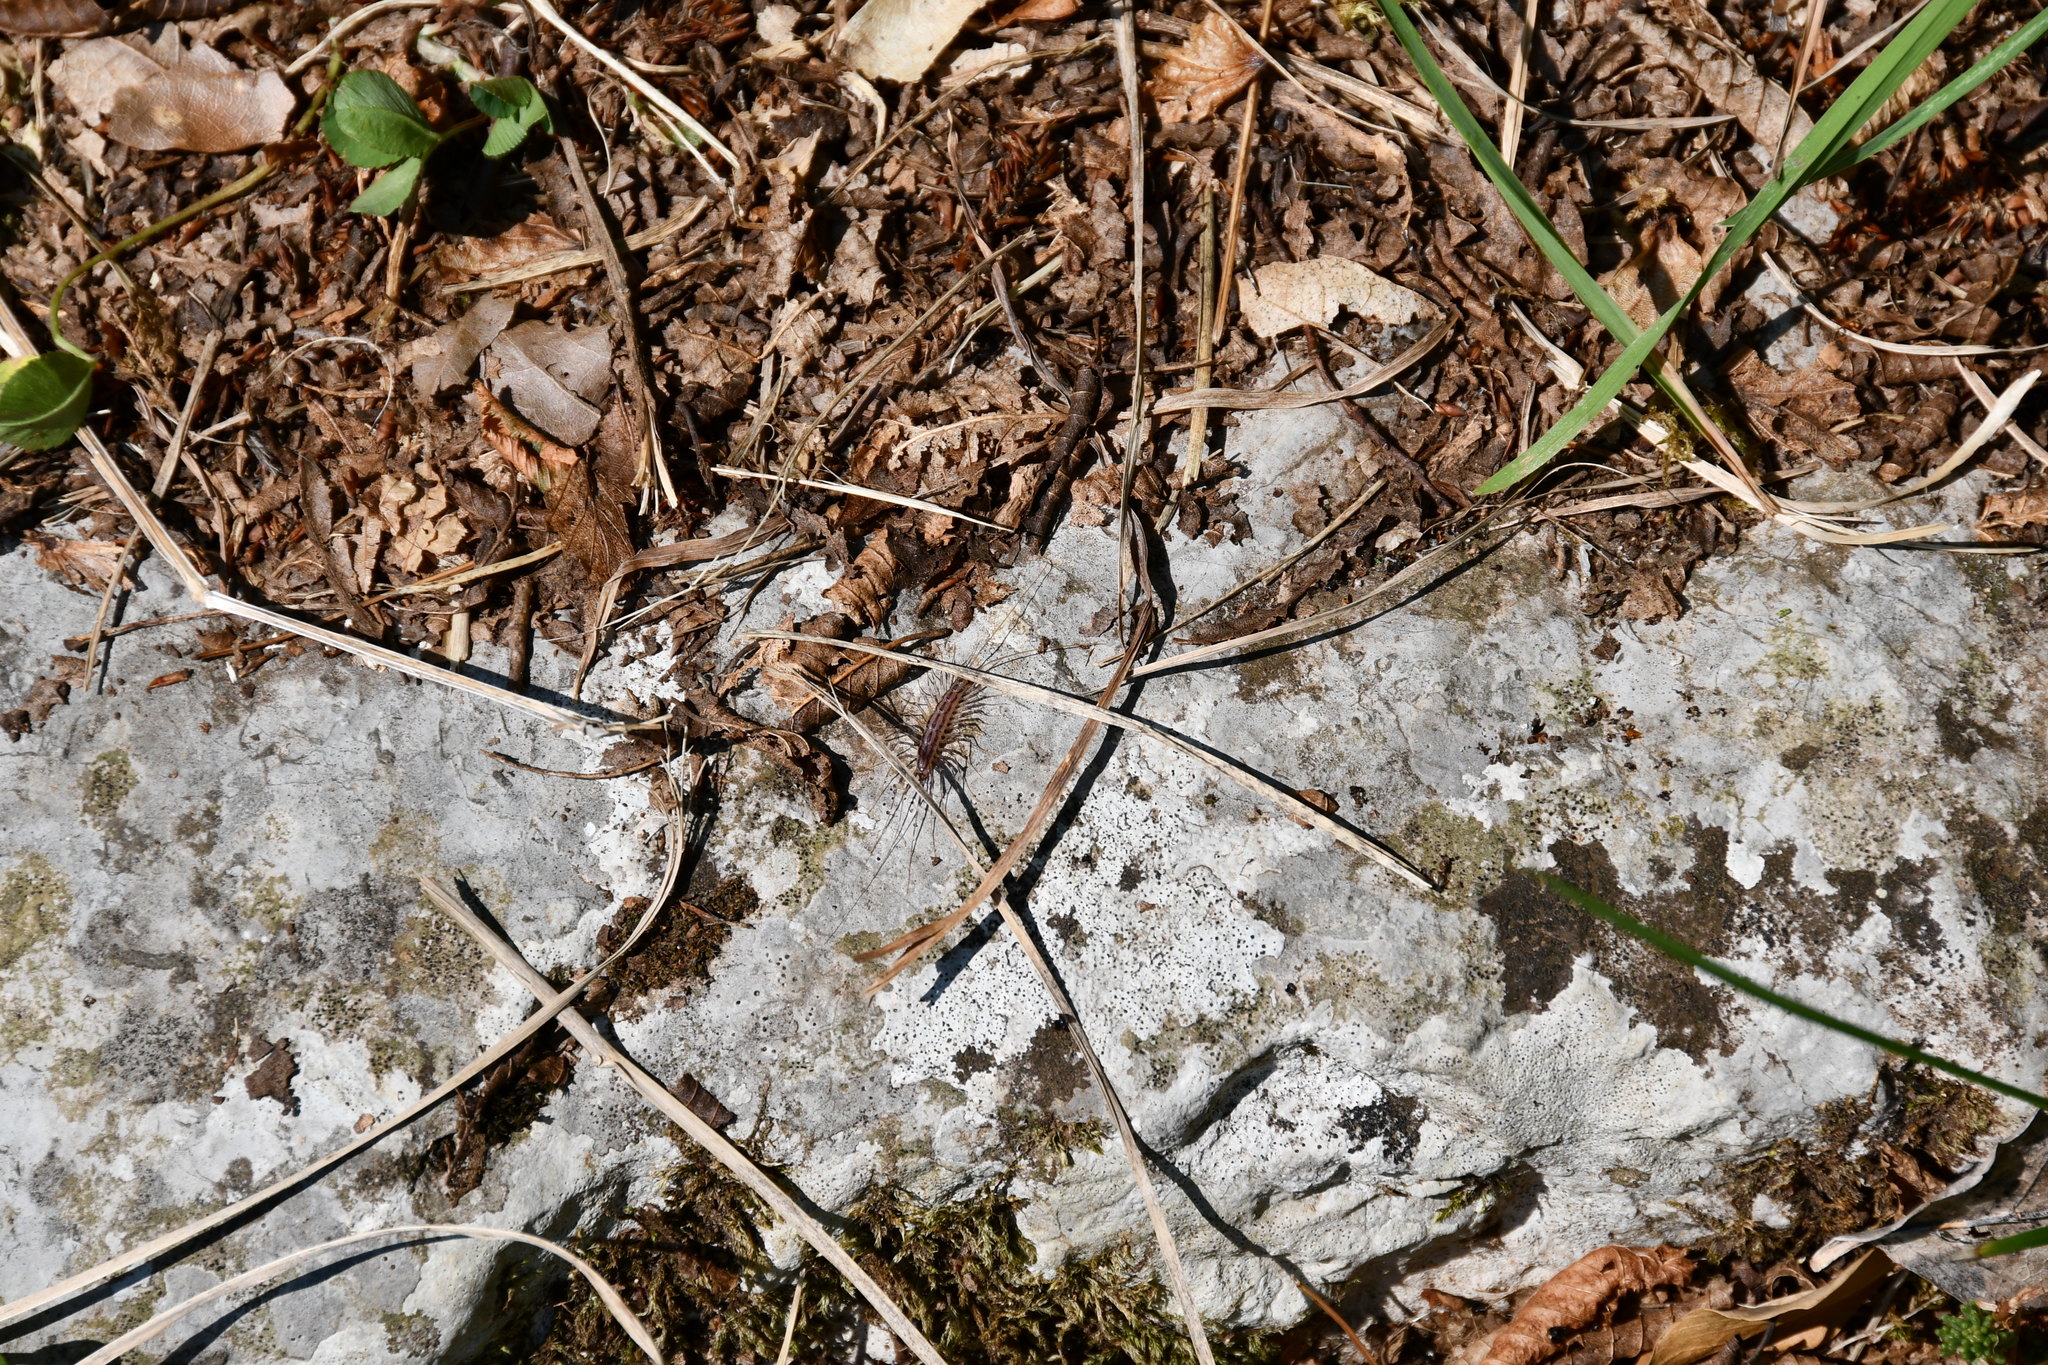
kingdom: Animalia
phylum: Arthropoda
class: Chilopoda
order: Scutigeromorpha
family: Scutigeridae
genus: Scutigera
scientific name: Scutigera coleoptrata
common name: House centipede
